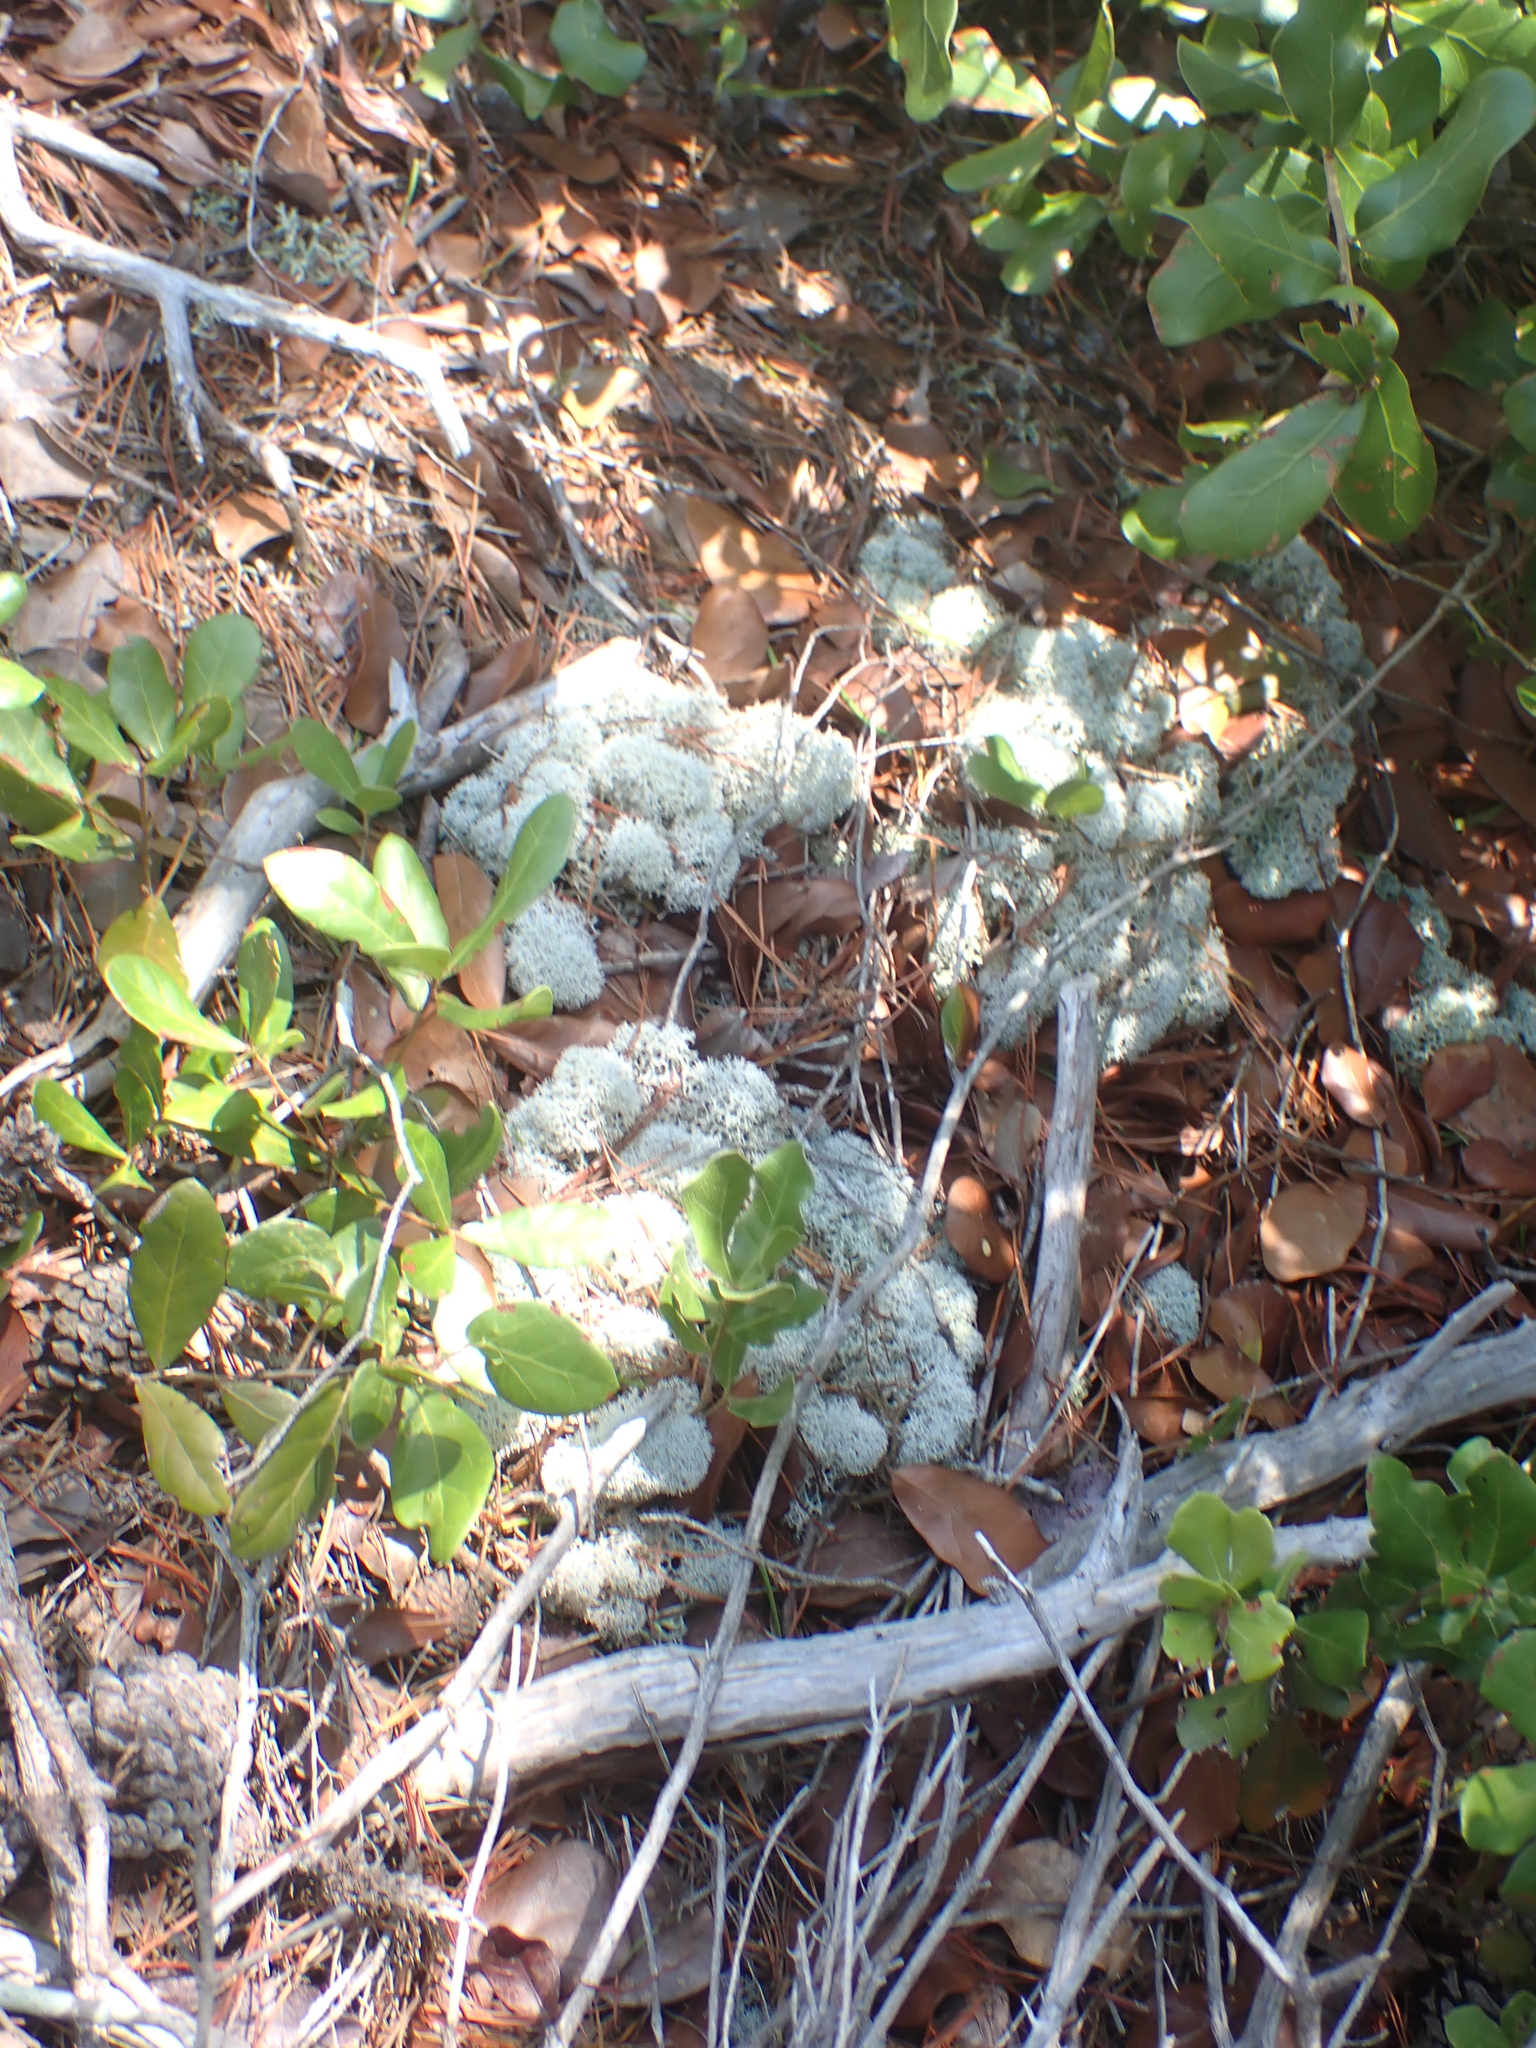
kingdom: Fungi
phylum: Ascomycota
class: Lecanoromycetes
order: Lecanorales
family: Cladoniaceae
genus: Cladonia
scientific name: Cladonia evansii
